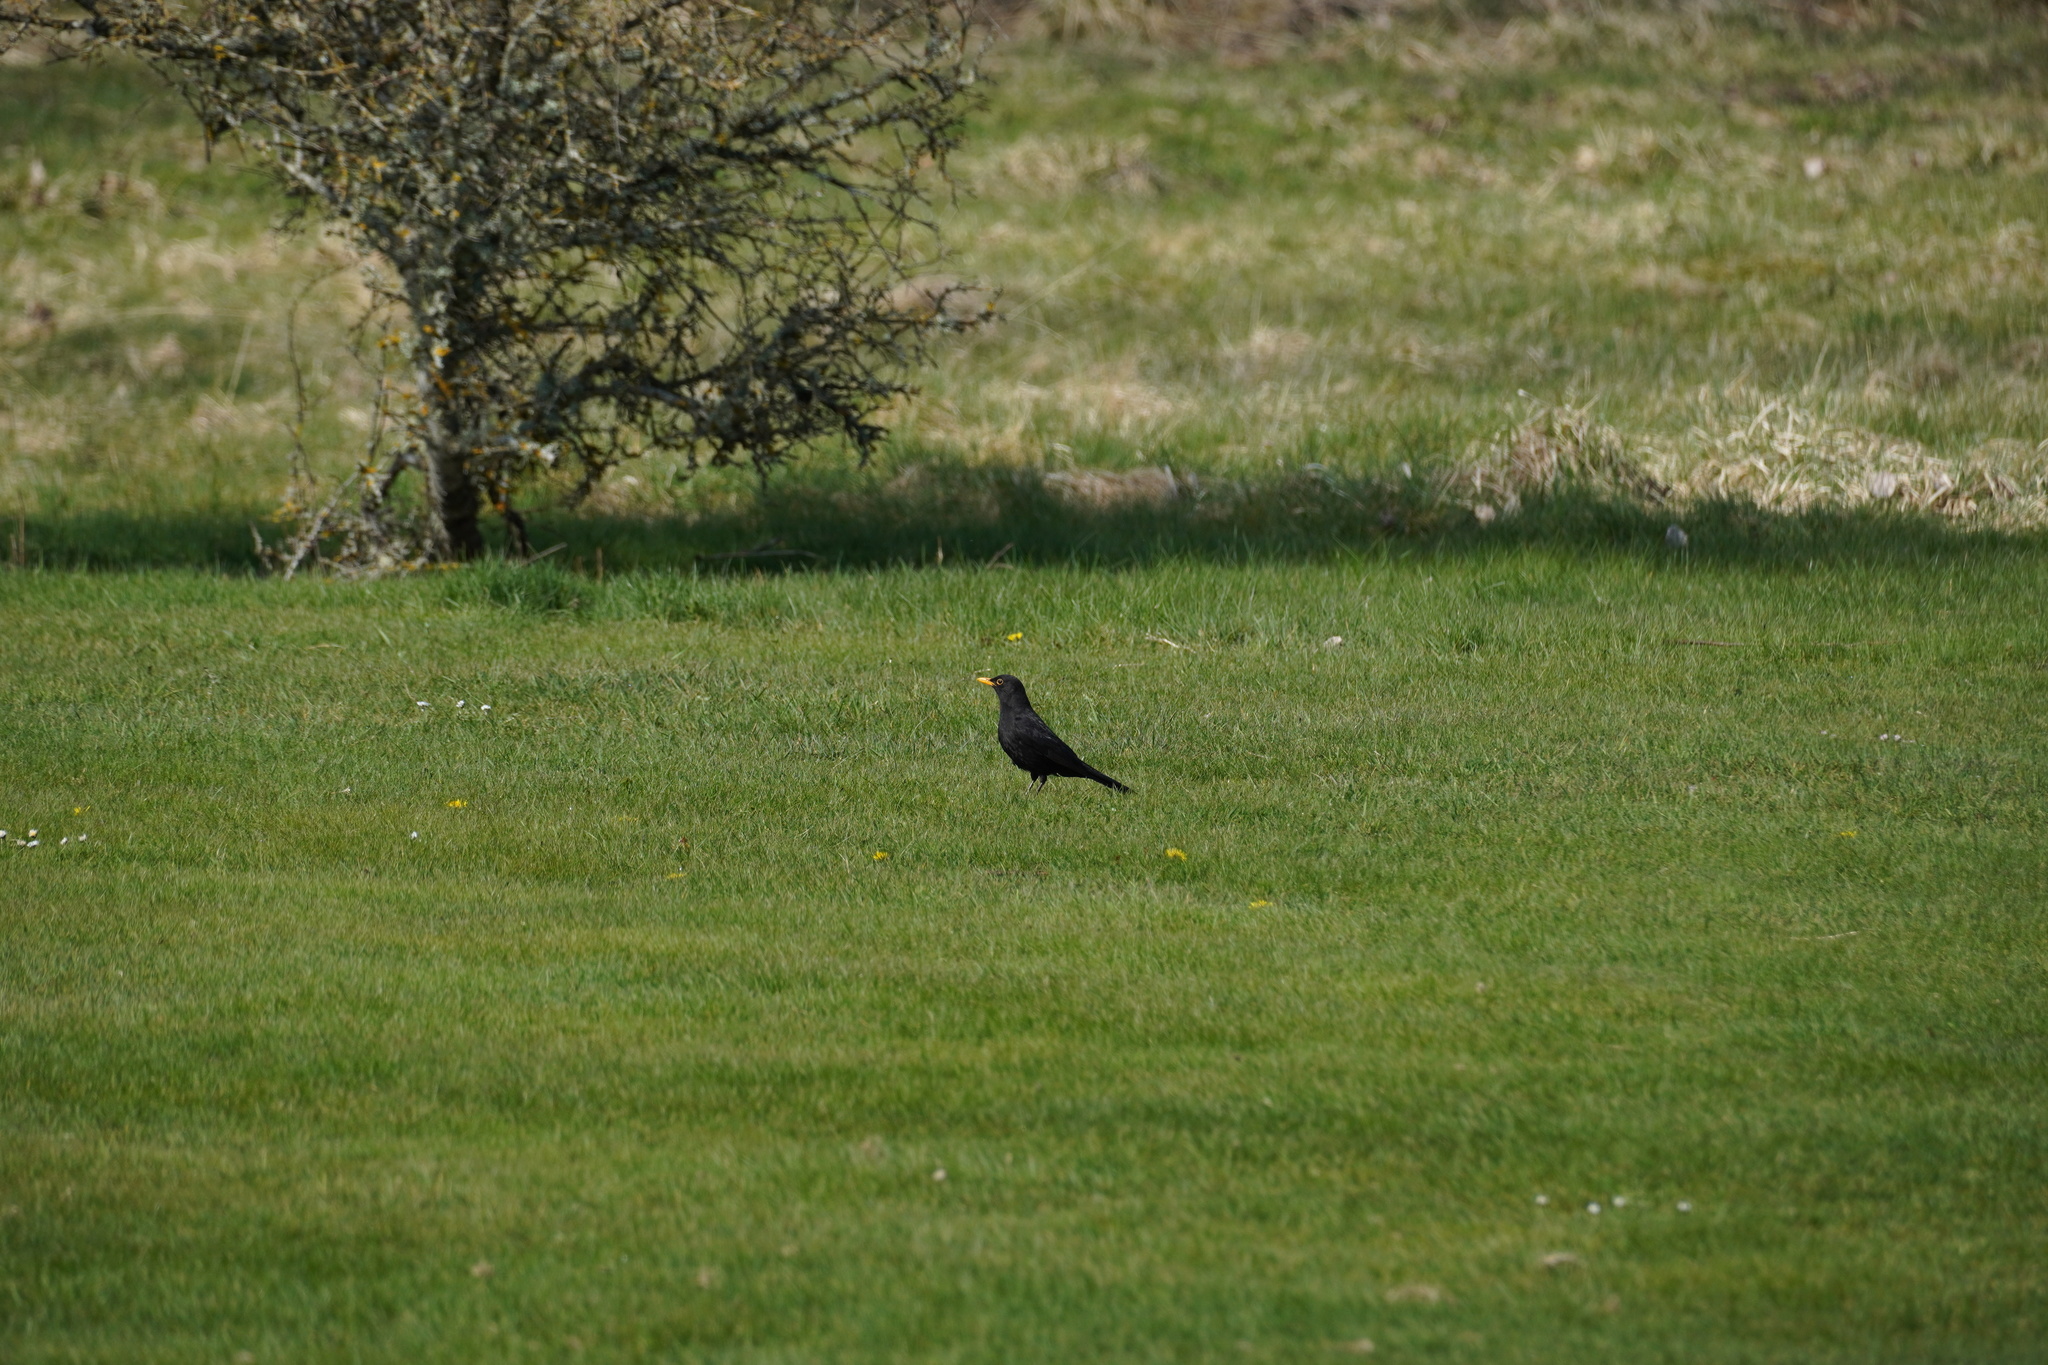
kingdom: Animalia
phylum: Chordata
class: Aves
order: Passeriformes
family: Turdidae
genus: Turdus
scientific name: Turdus merula
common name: Common blackbird
